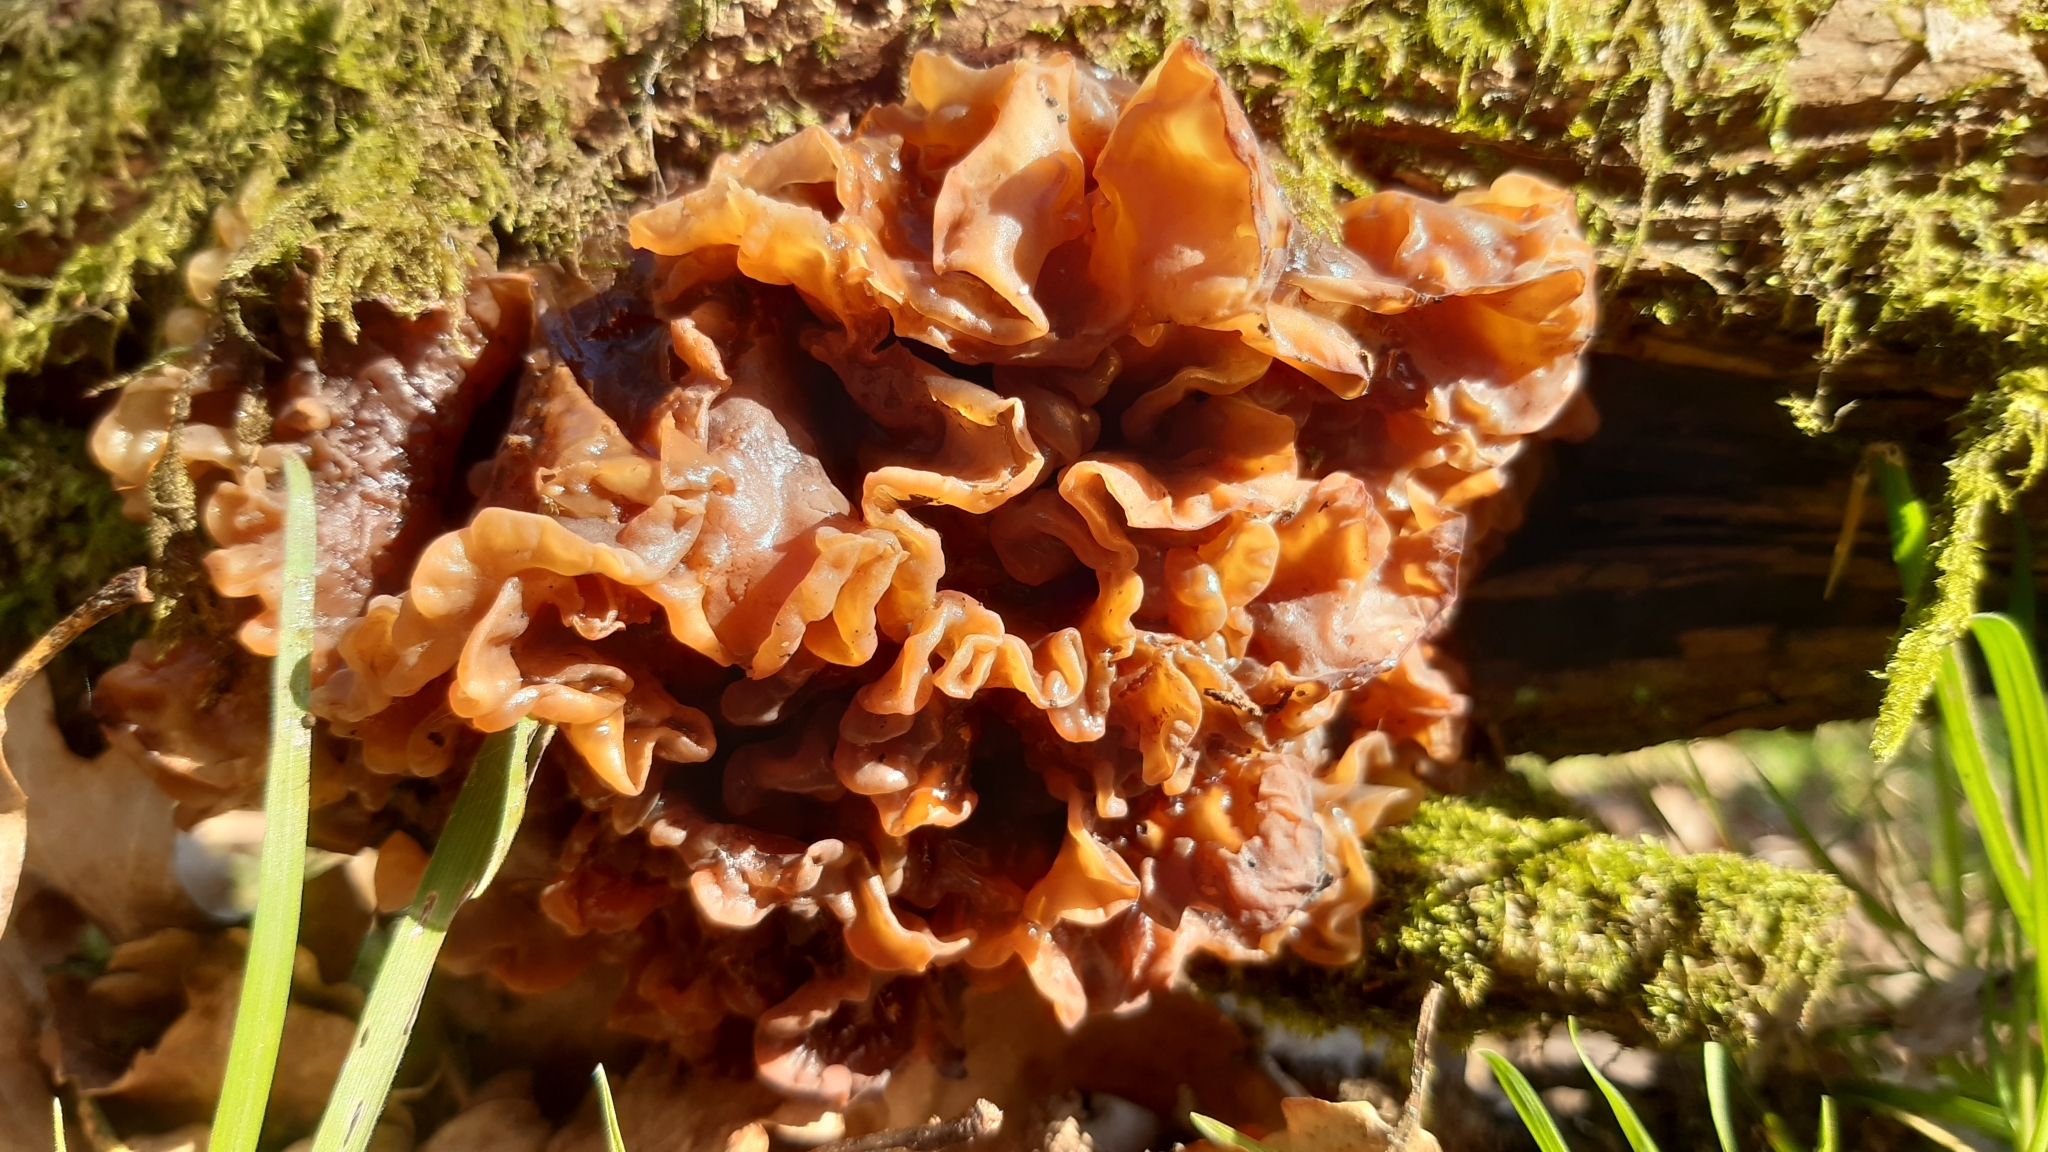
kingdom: Fungi
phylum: Basidiomycota
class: Tremellomycetes
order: Tremellales
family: Tremellaceae
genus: Phaeotremella
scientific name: Phaeotremella frondosa
